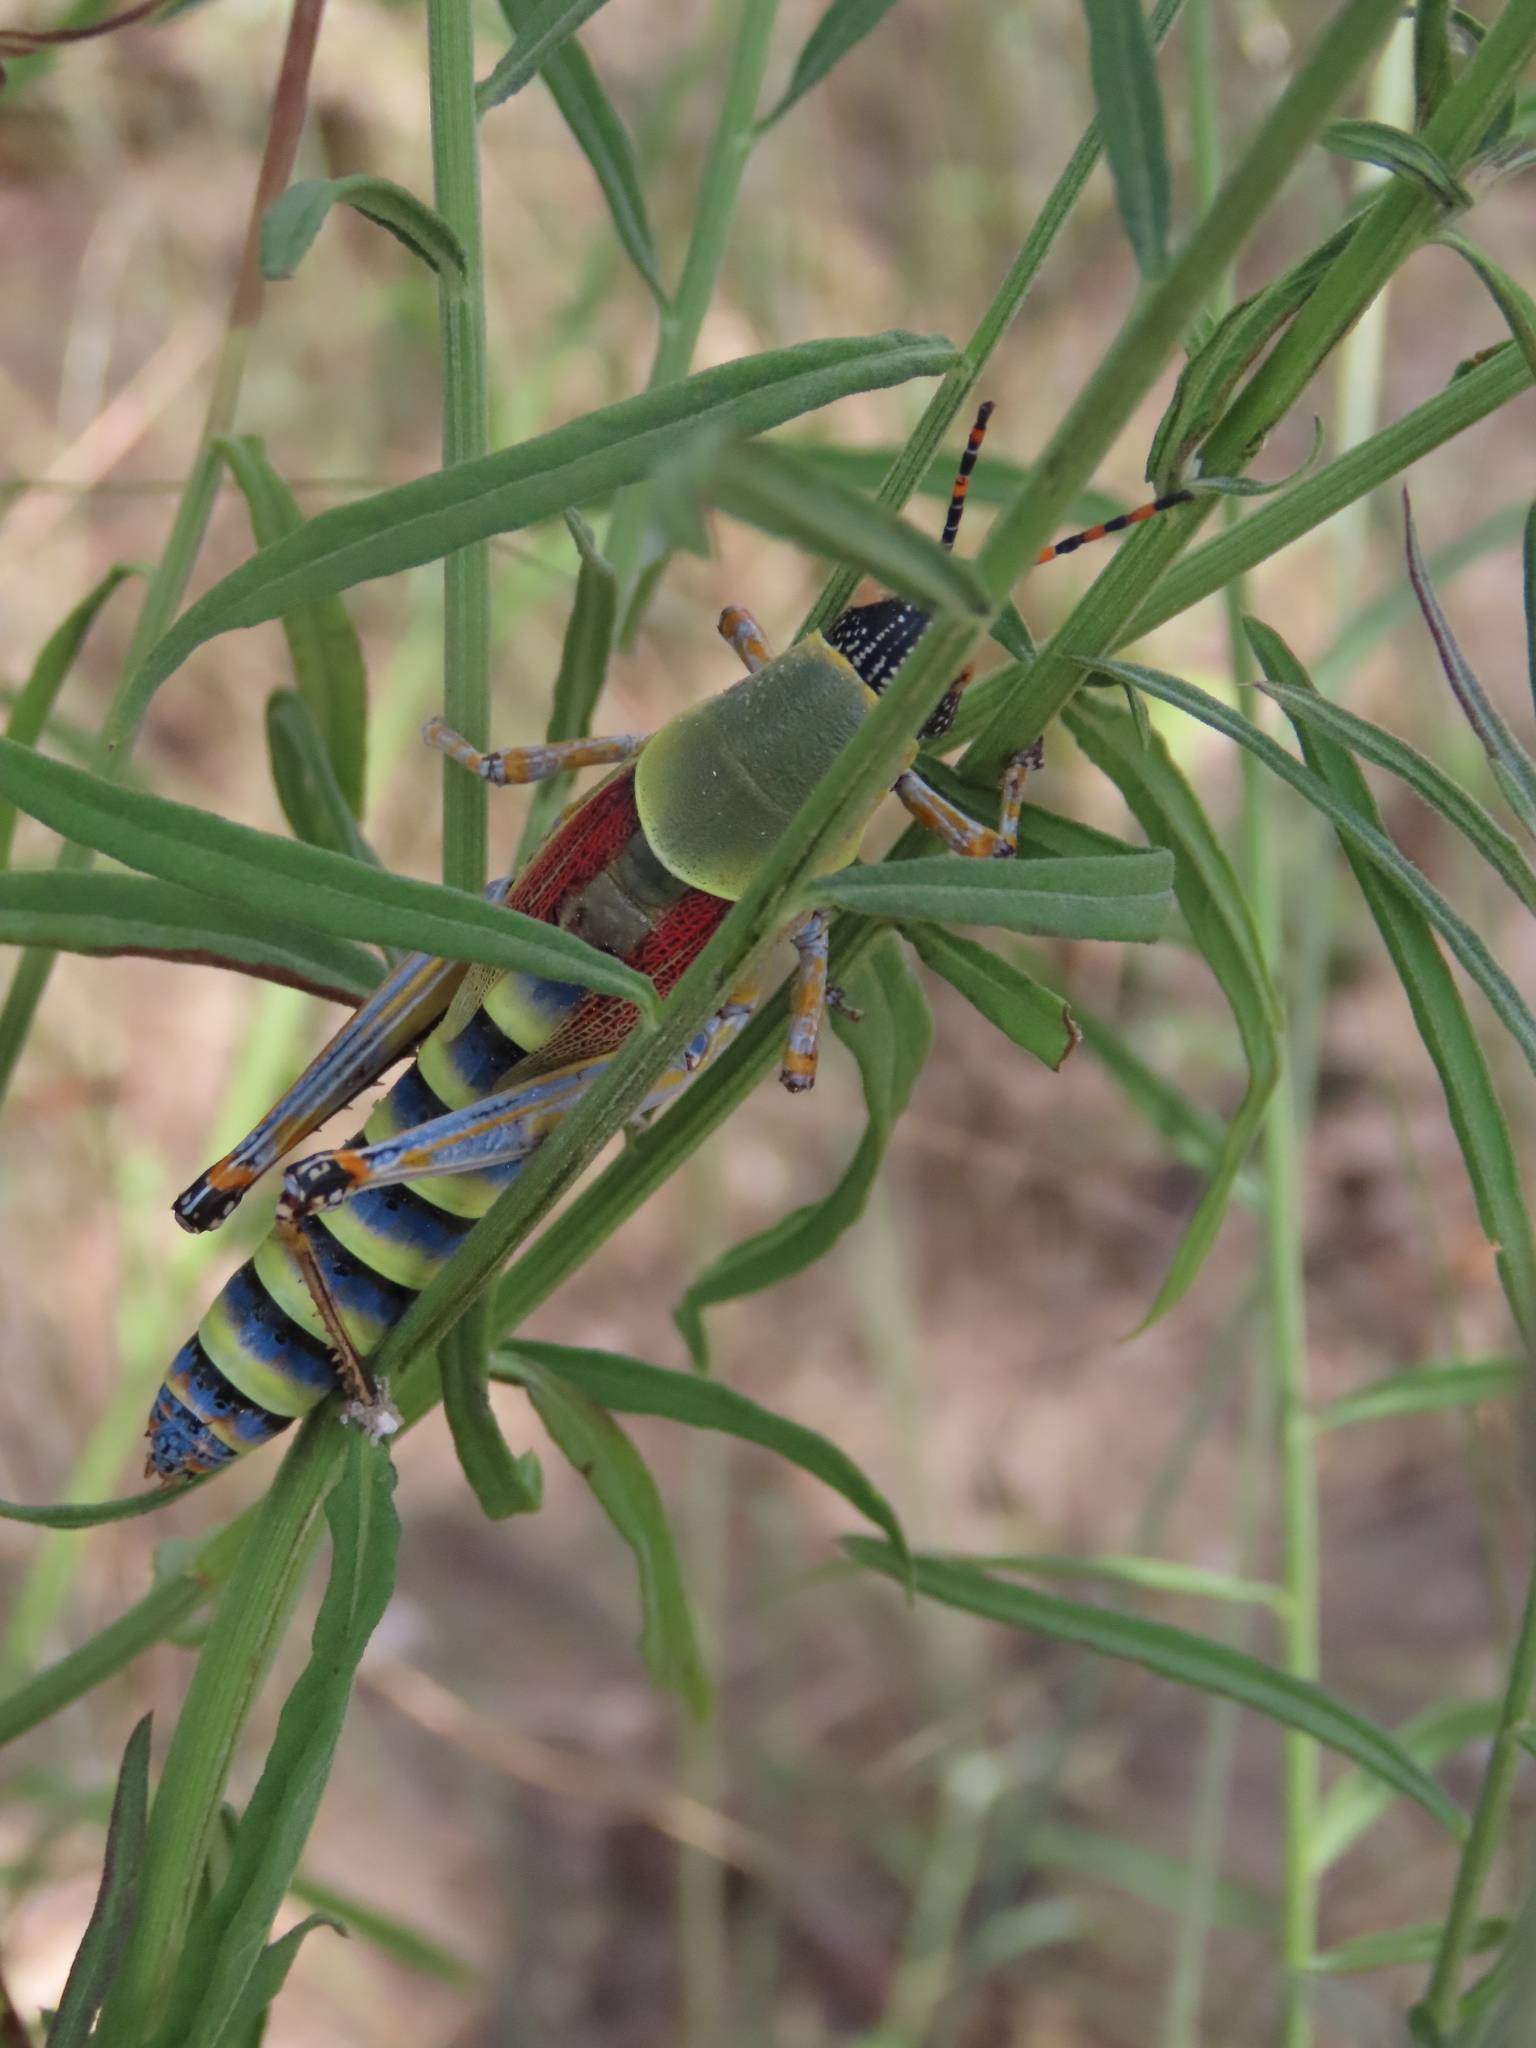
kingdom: Animalia
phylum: Arthropoda
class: Insecta
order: Orthoptera
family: Pyrgomorphidae
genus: Zonocerus
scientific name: Zonocerus elegans
